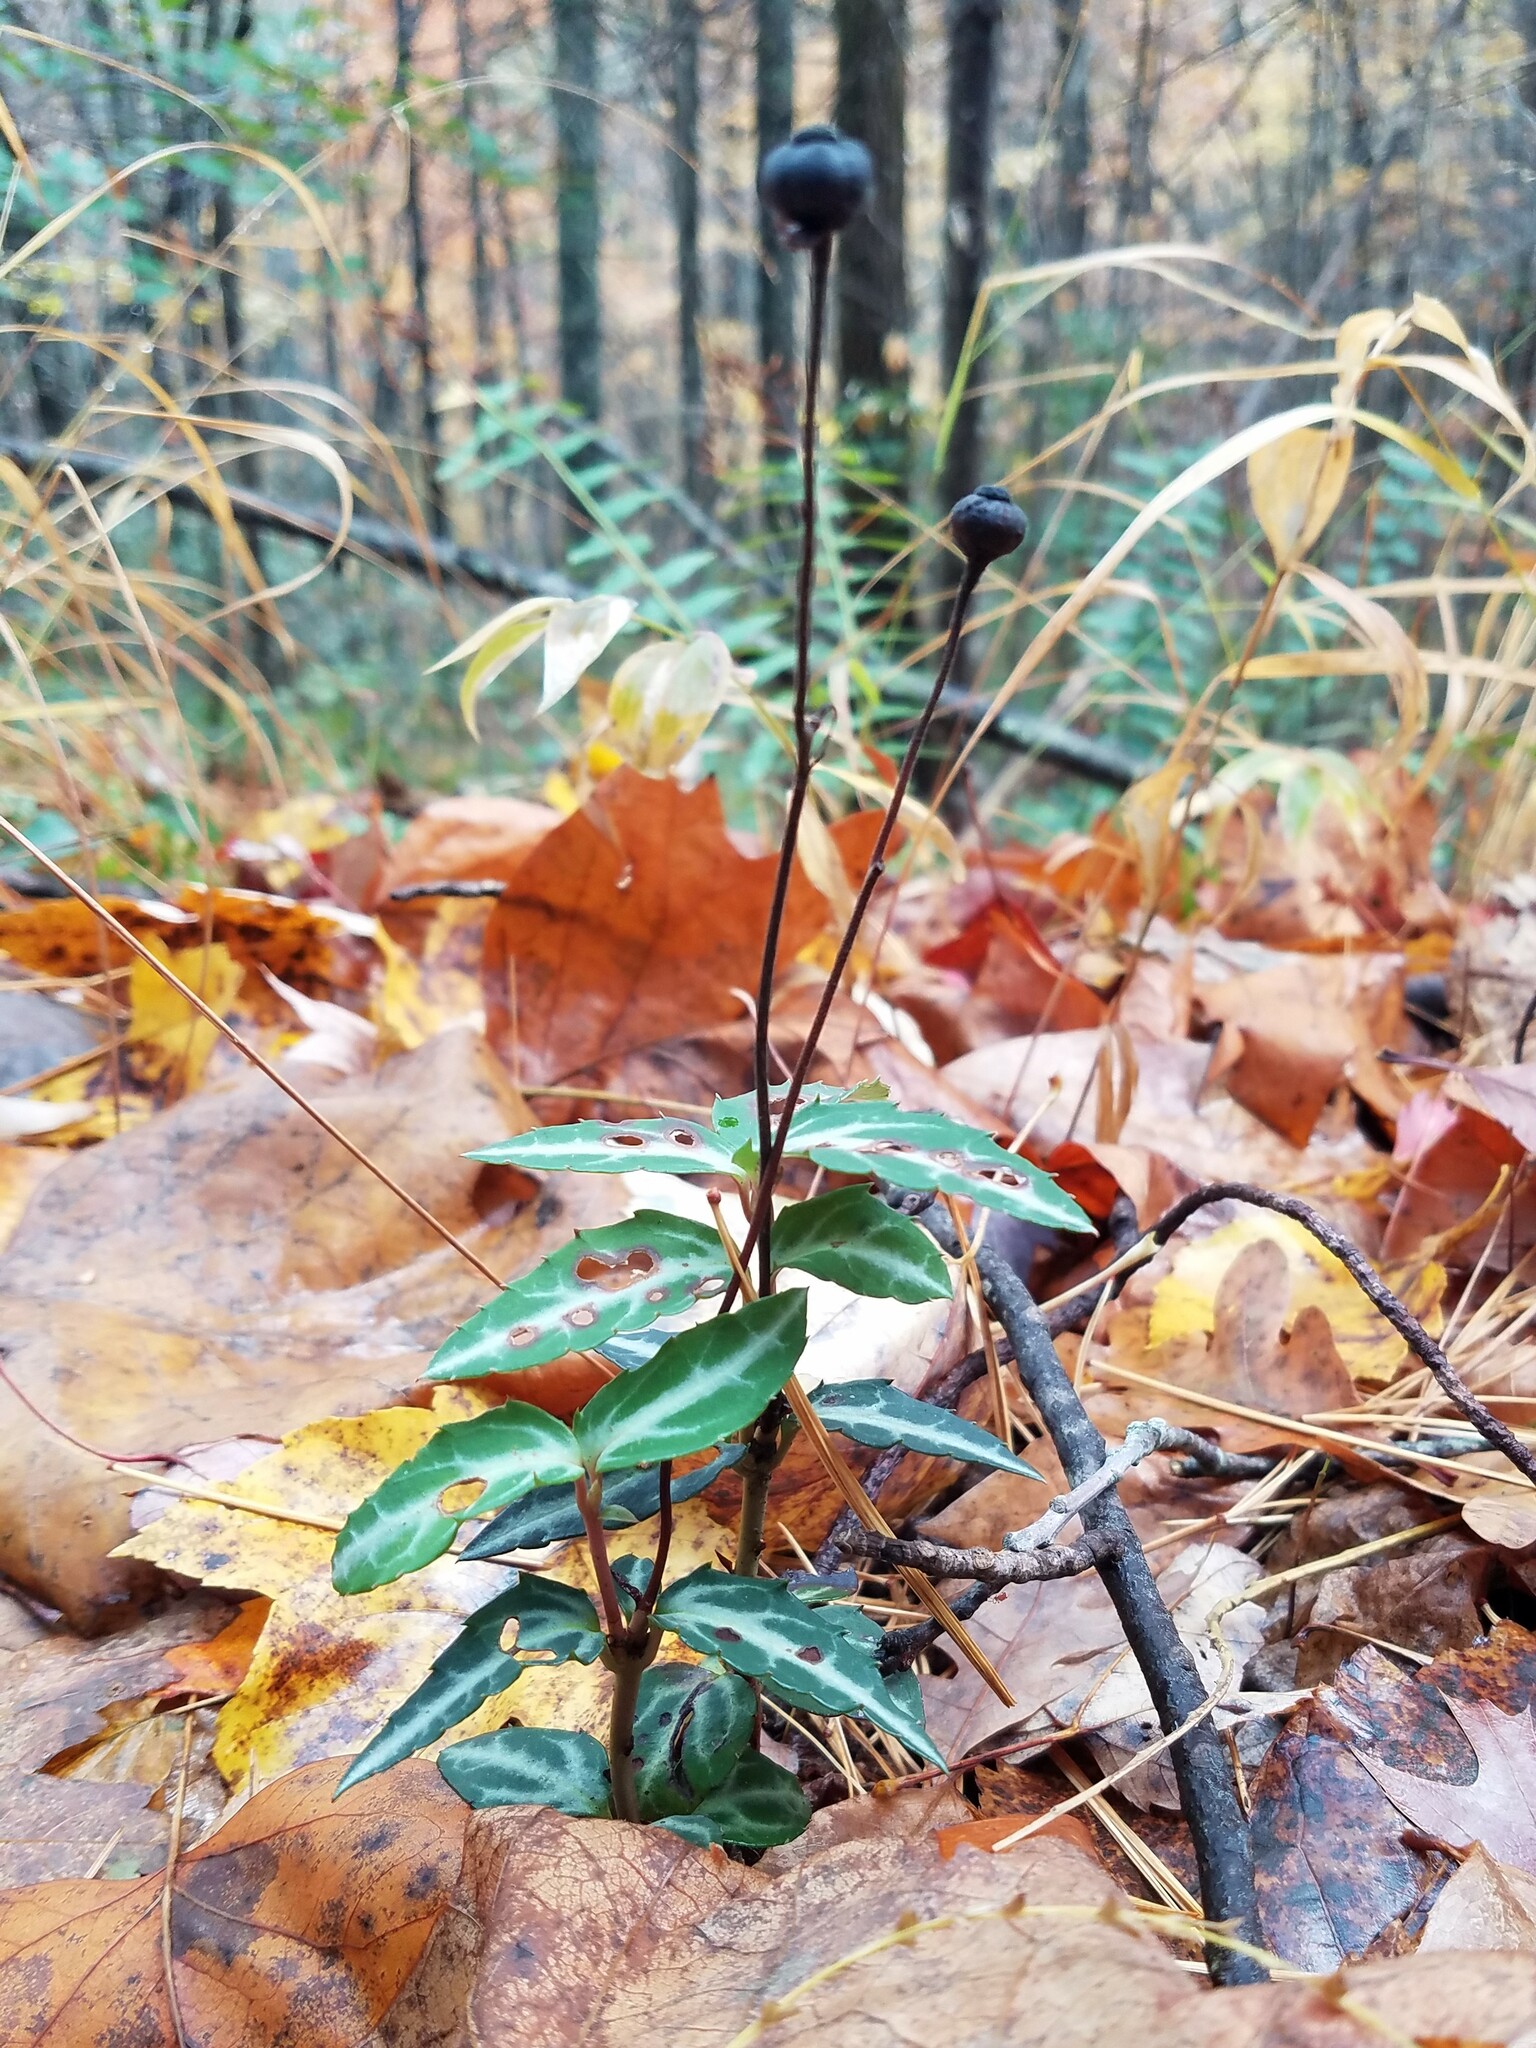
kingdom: Plantae
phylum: Tracheophyta
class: Magnoliopsida
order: Ericales
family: Ericaceae
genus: Chimaphila
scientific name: Chimaphila maculata
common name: Spotted pipsissewa
